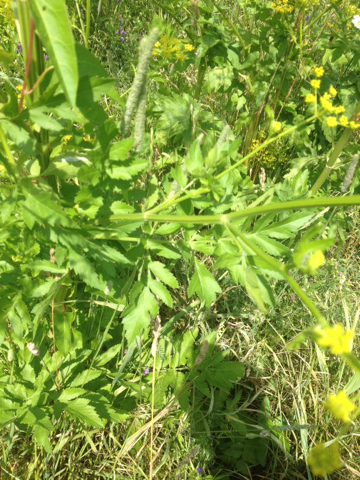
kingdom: Plantae
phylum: Tracheophyta
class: Magnoliopsida
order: Apiales
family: Apiaceae
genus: Pastinaca
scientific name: Pastinaca sativa
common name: Wild parsnip
